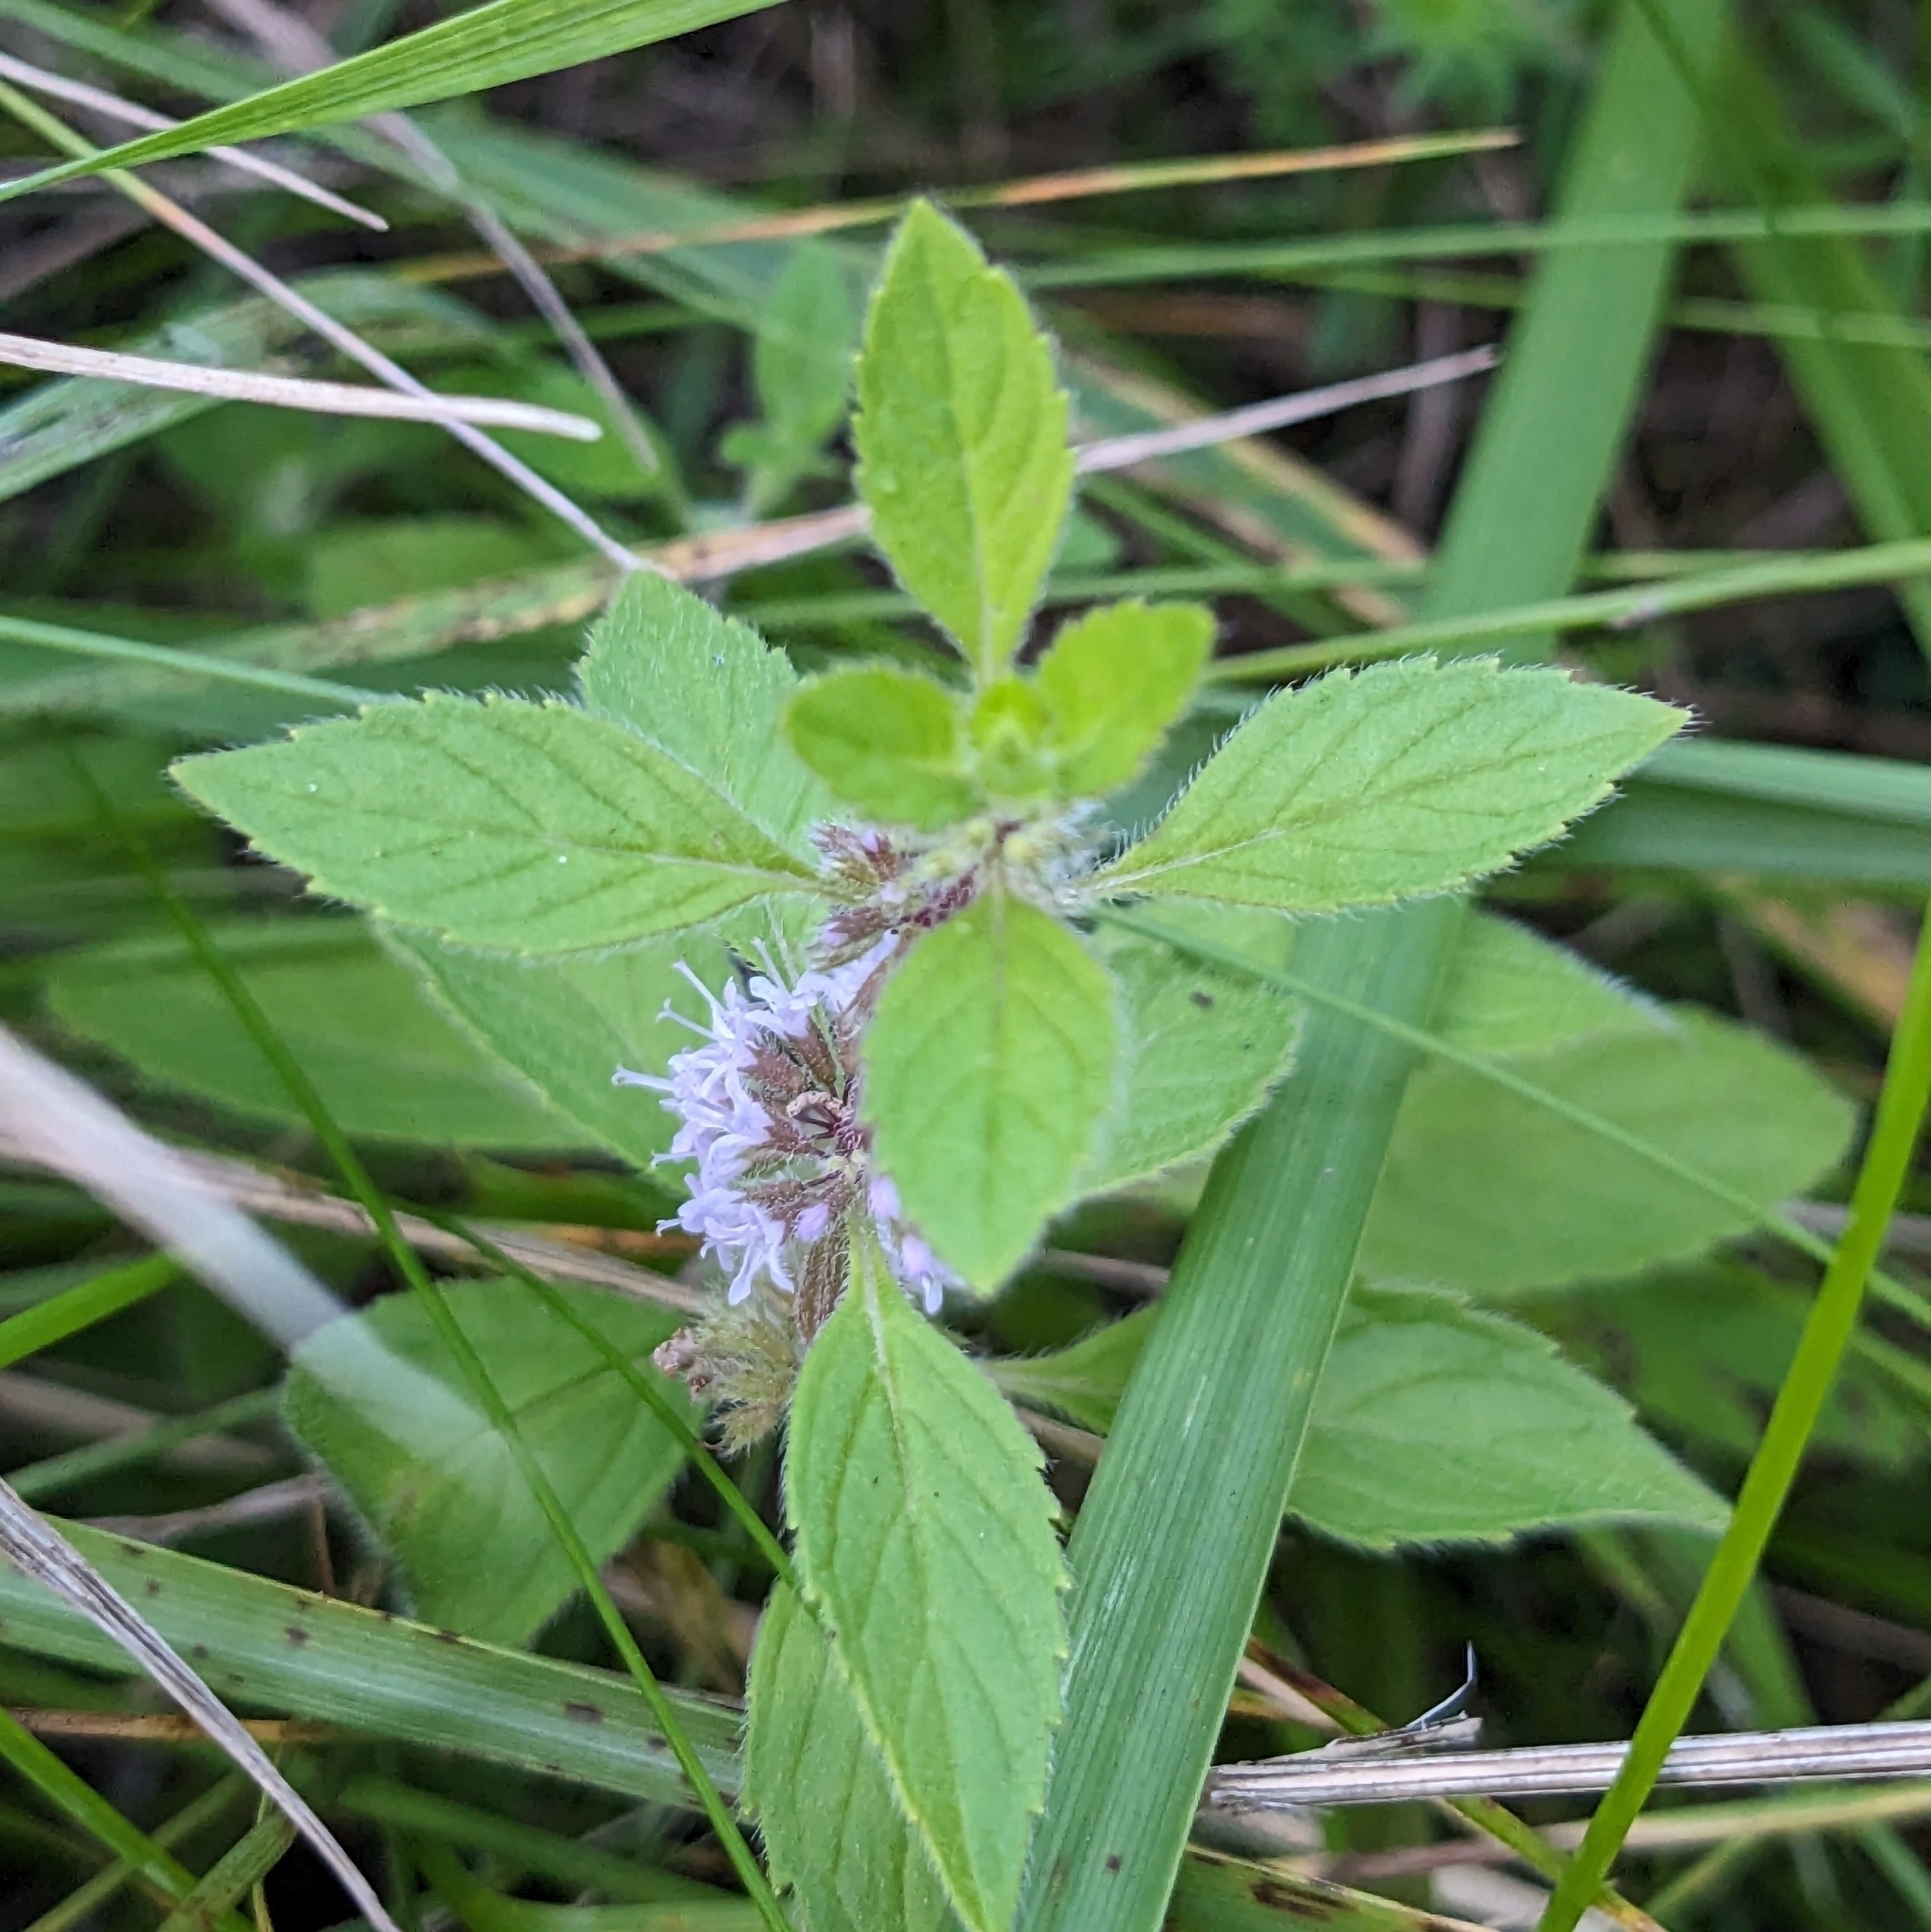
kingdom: Plantae
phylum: Tracheophyta
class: Magnoliopsida
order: Lamiales
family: Lamiaceae
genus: Mentha
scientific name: Mentha canadensis
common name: American corn mint
